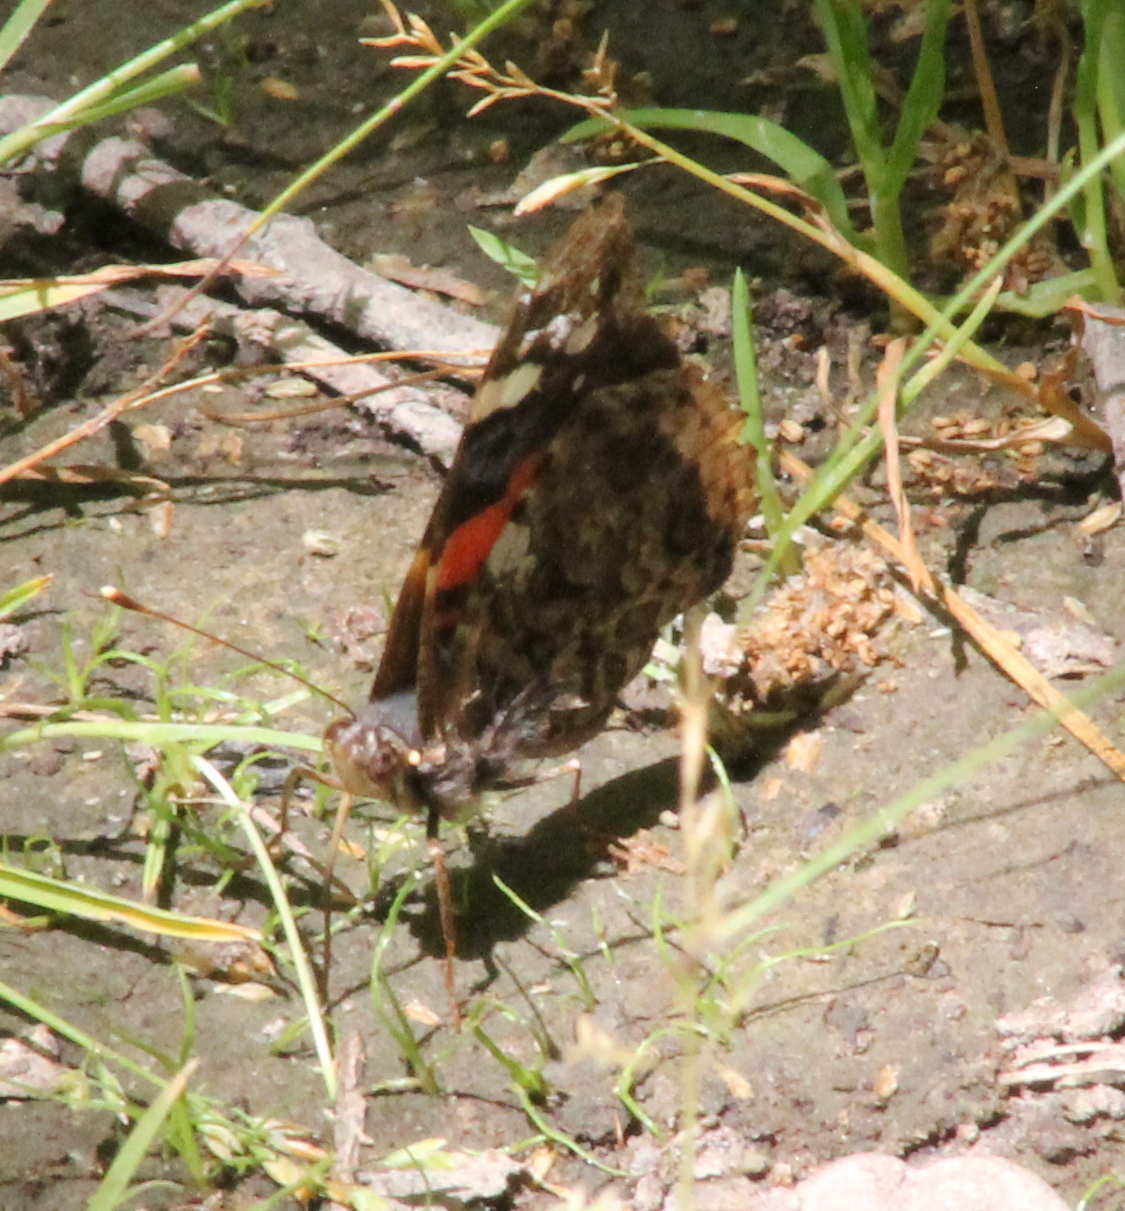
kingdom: Animalia
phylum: Arthropoda
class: Insecta
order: Lepidoptera
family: Nymphalidae
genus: Vanessa
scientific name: Vanessa atalanta
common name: Red admiral
